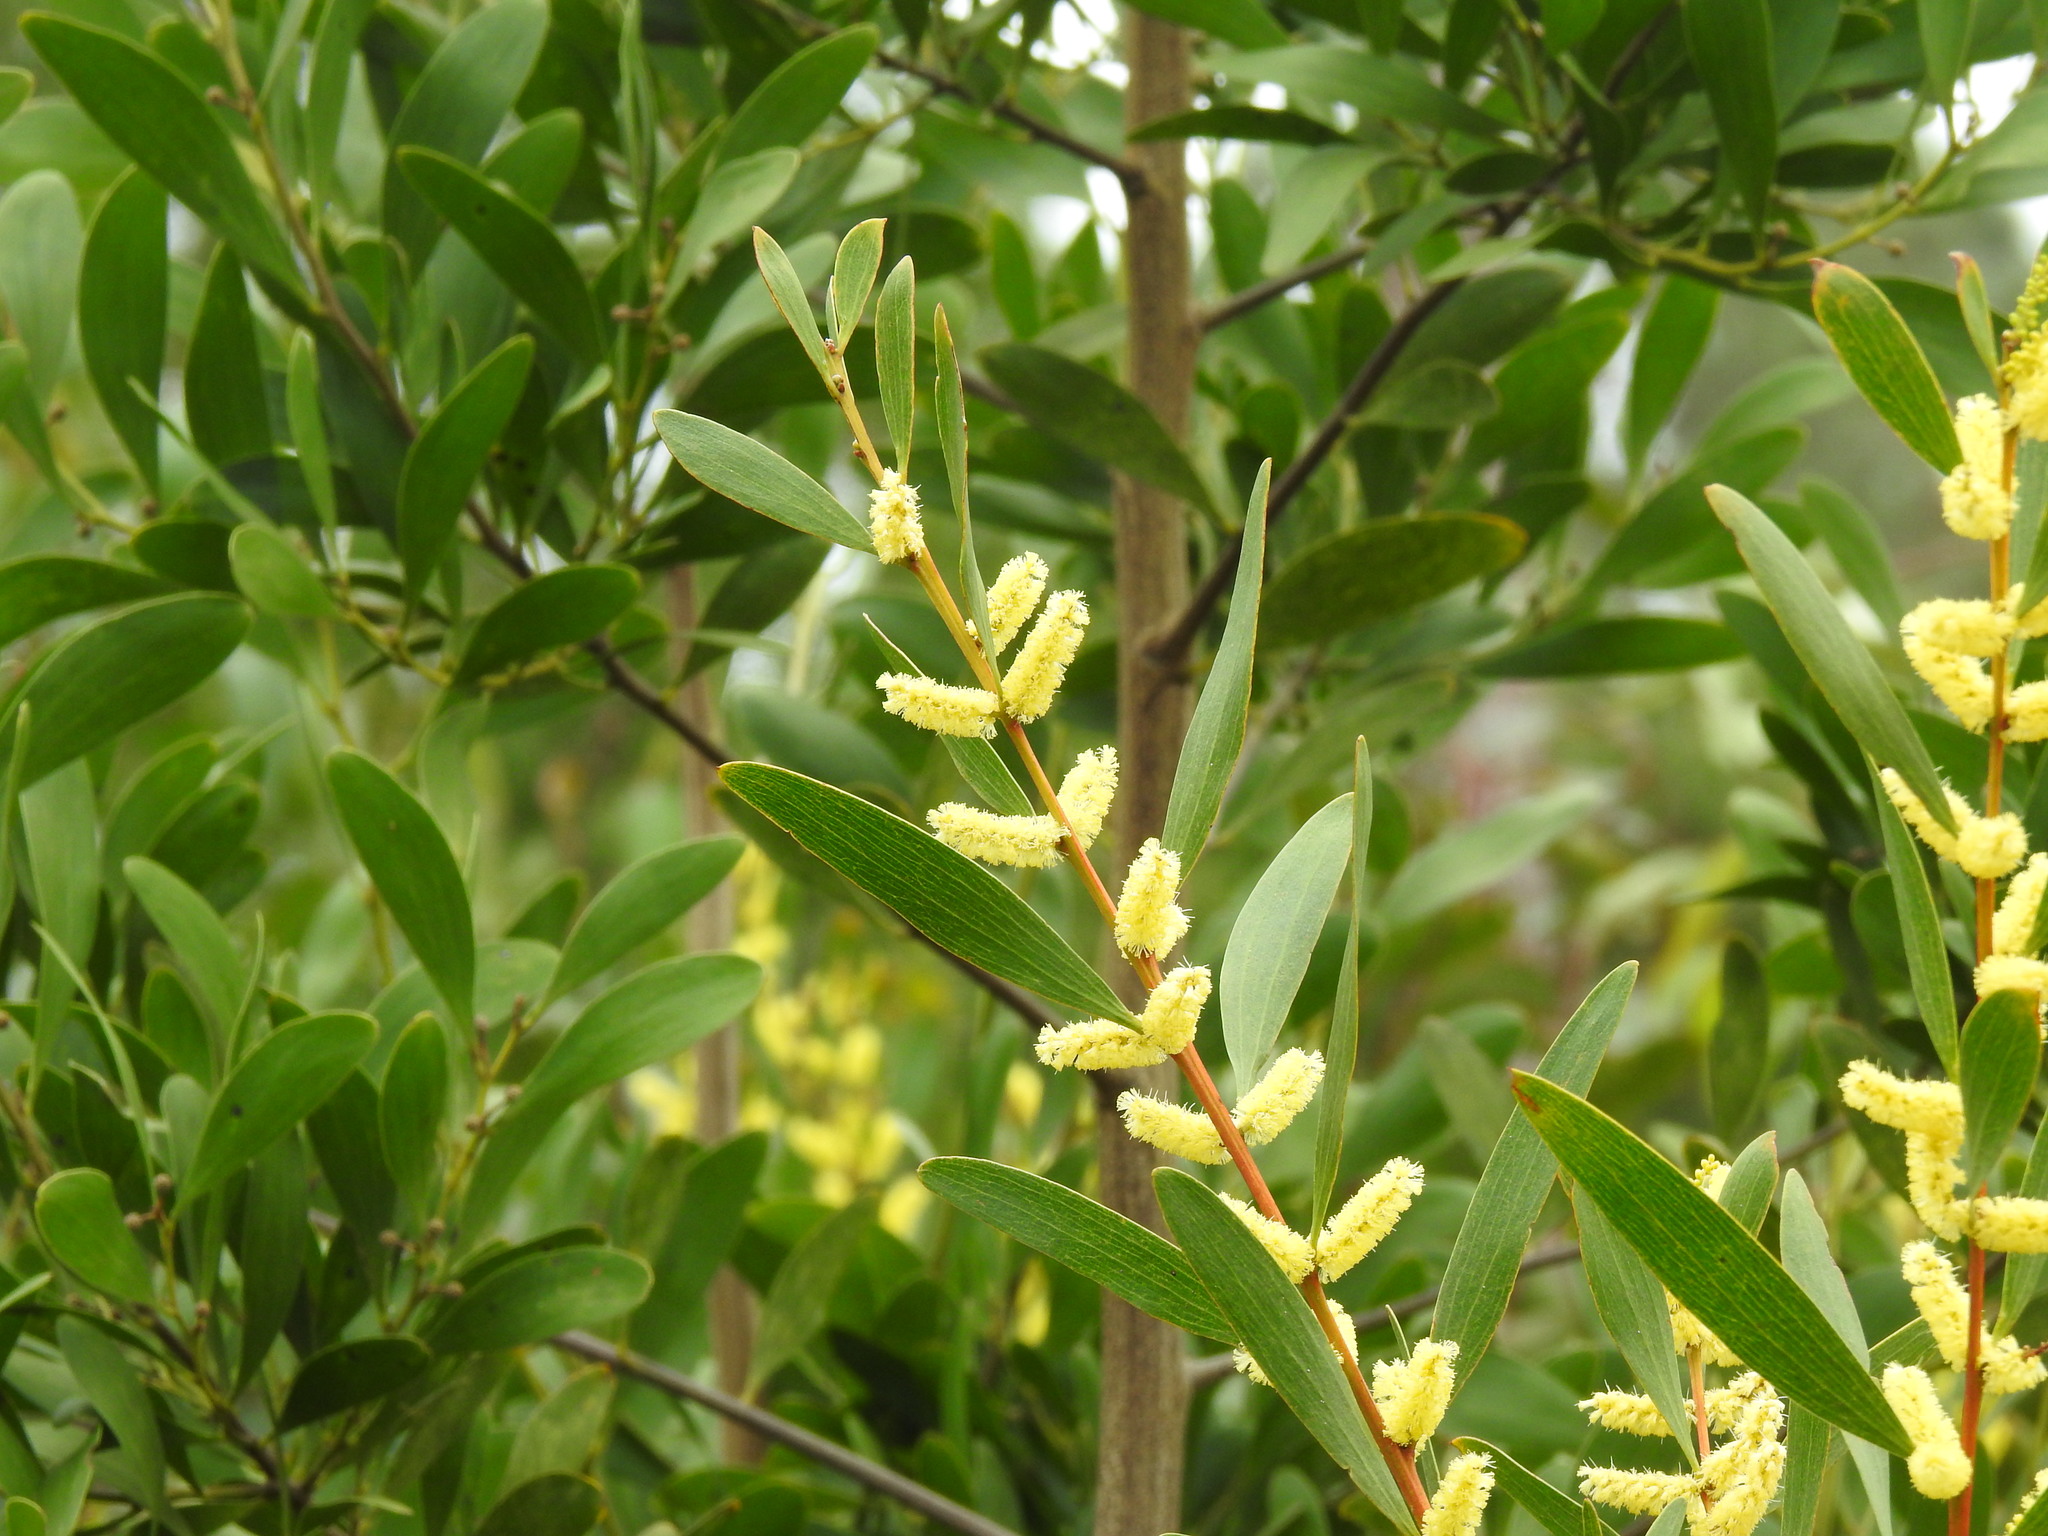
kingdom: Plantae
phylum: Tracheophyta
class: Magnoliopsida
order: Fabales
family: Fabaceae
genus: Acacia
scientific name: Acacia longifolia
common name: Sydney golden wattle
